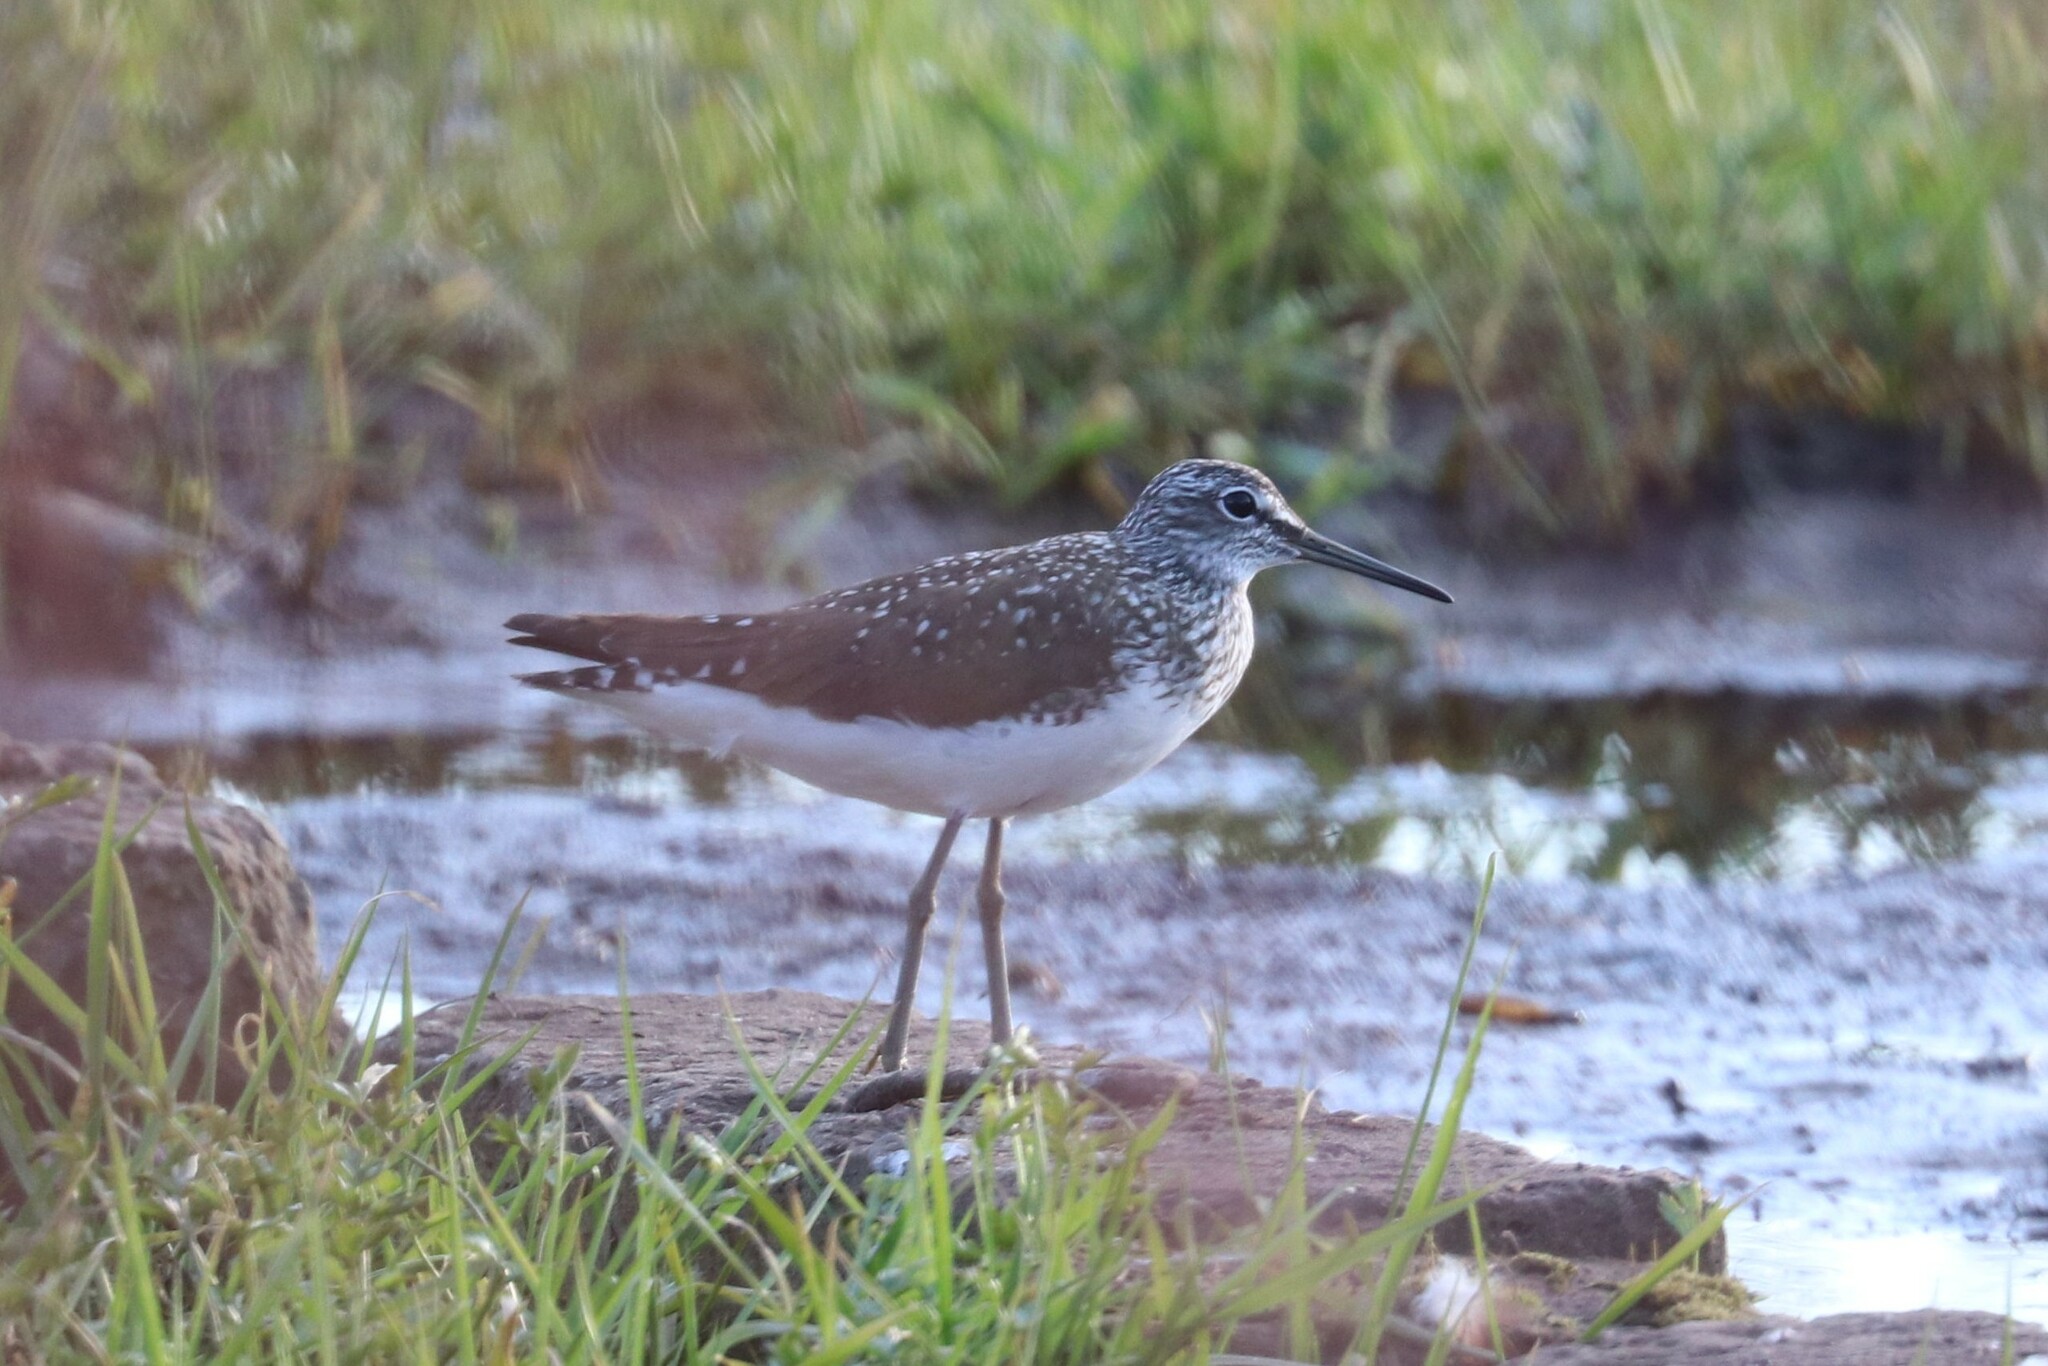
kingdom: Animalia
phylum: Chordata
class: Aves
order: Charadriiformes
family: Scolopacidae
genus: Tringa
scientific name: Tringa ochropus
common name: Green sandpiper
